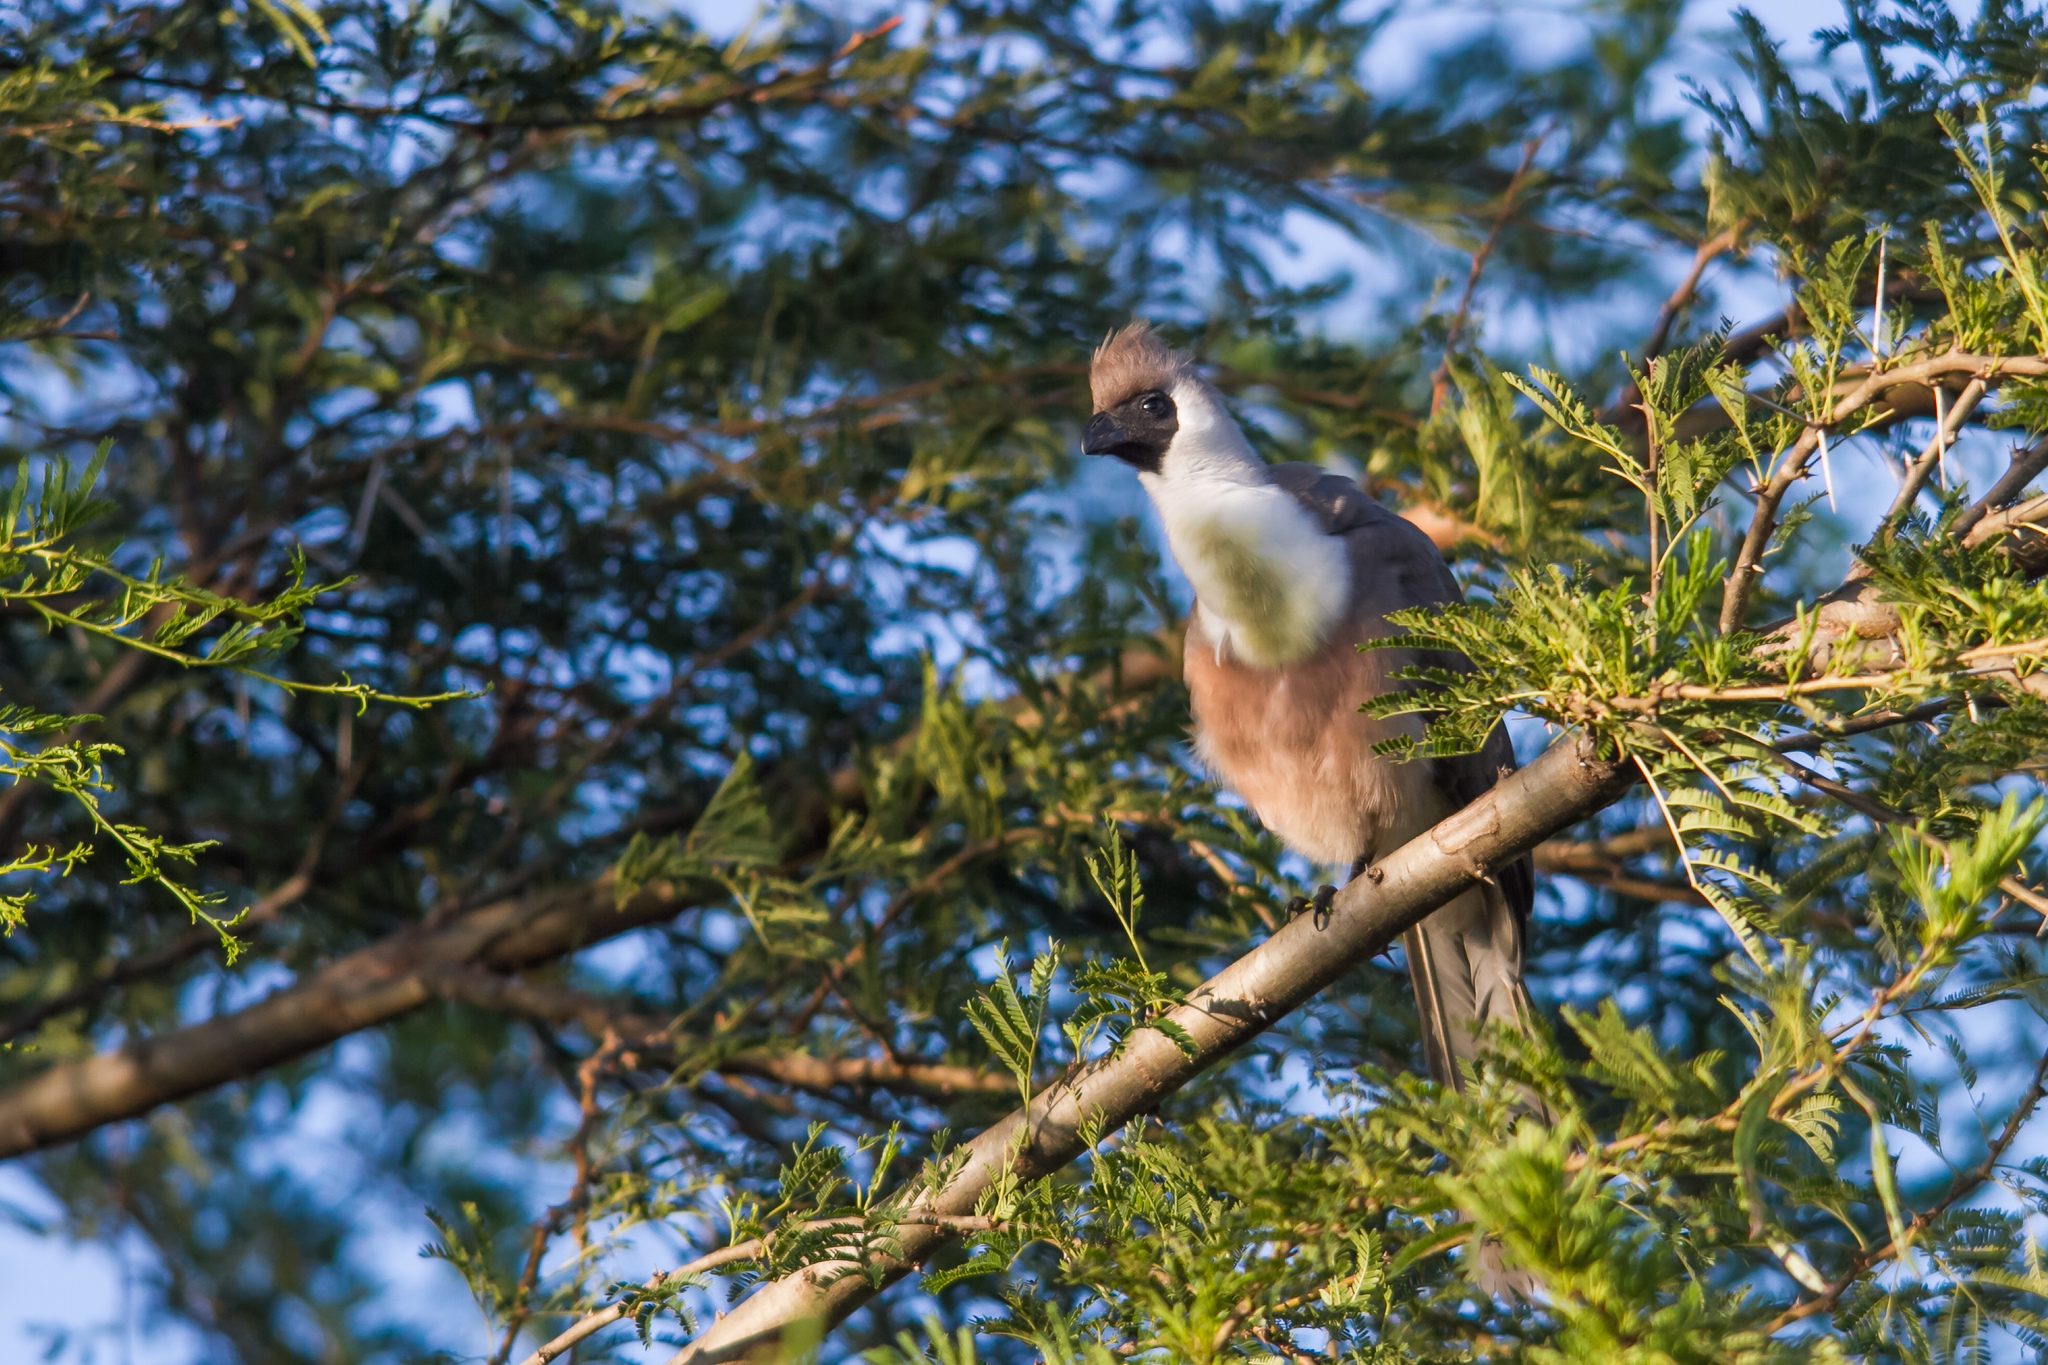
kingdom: Animalia
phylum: Chordata
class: Aves
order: Musophagiformes
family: Musophagidae
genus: Corythaixoides
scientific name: Corythaixoides personatus
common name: Bare-faced go-away-bird
